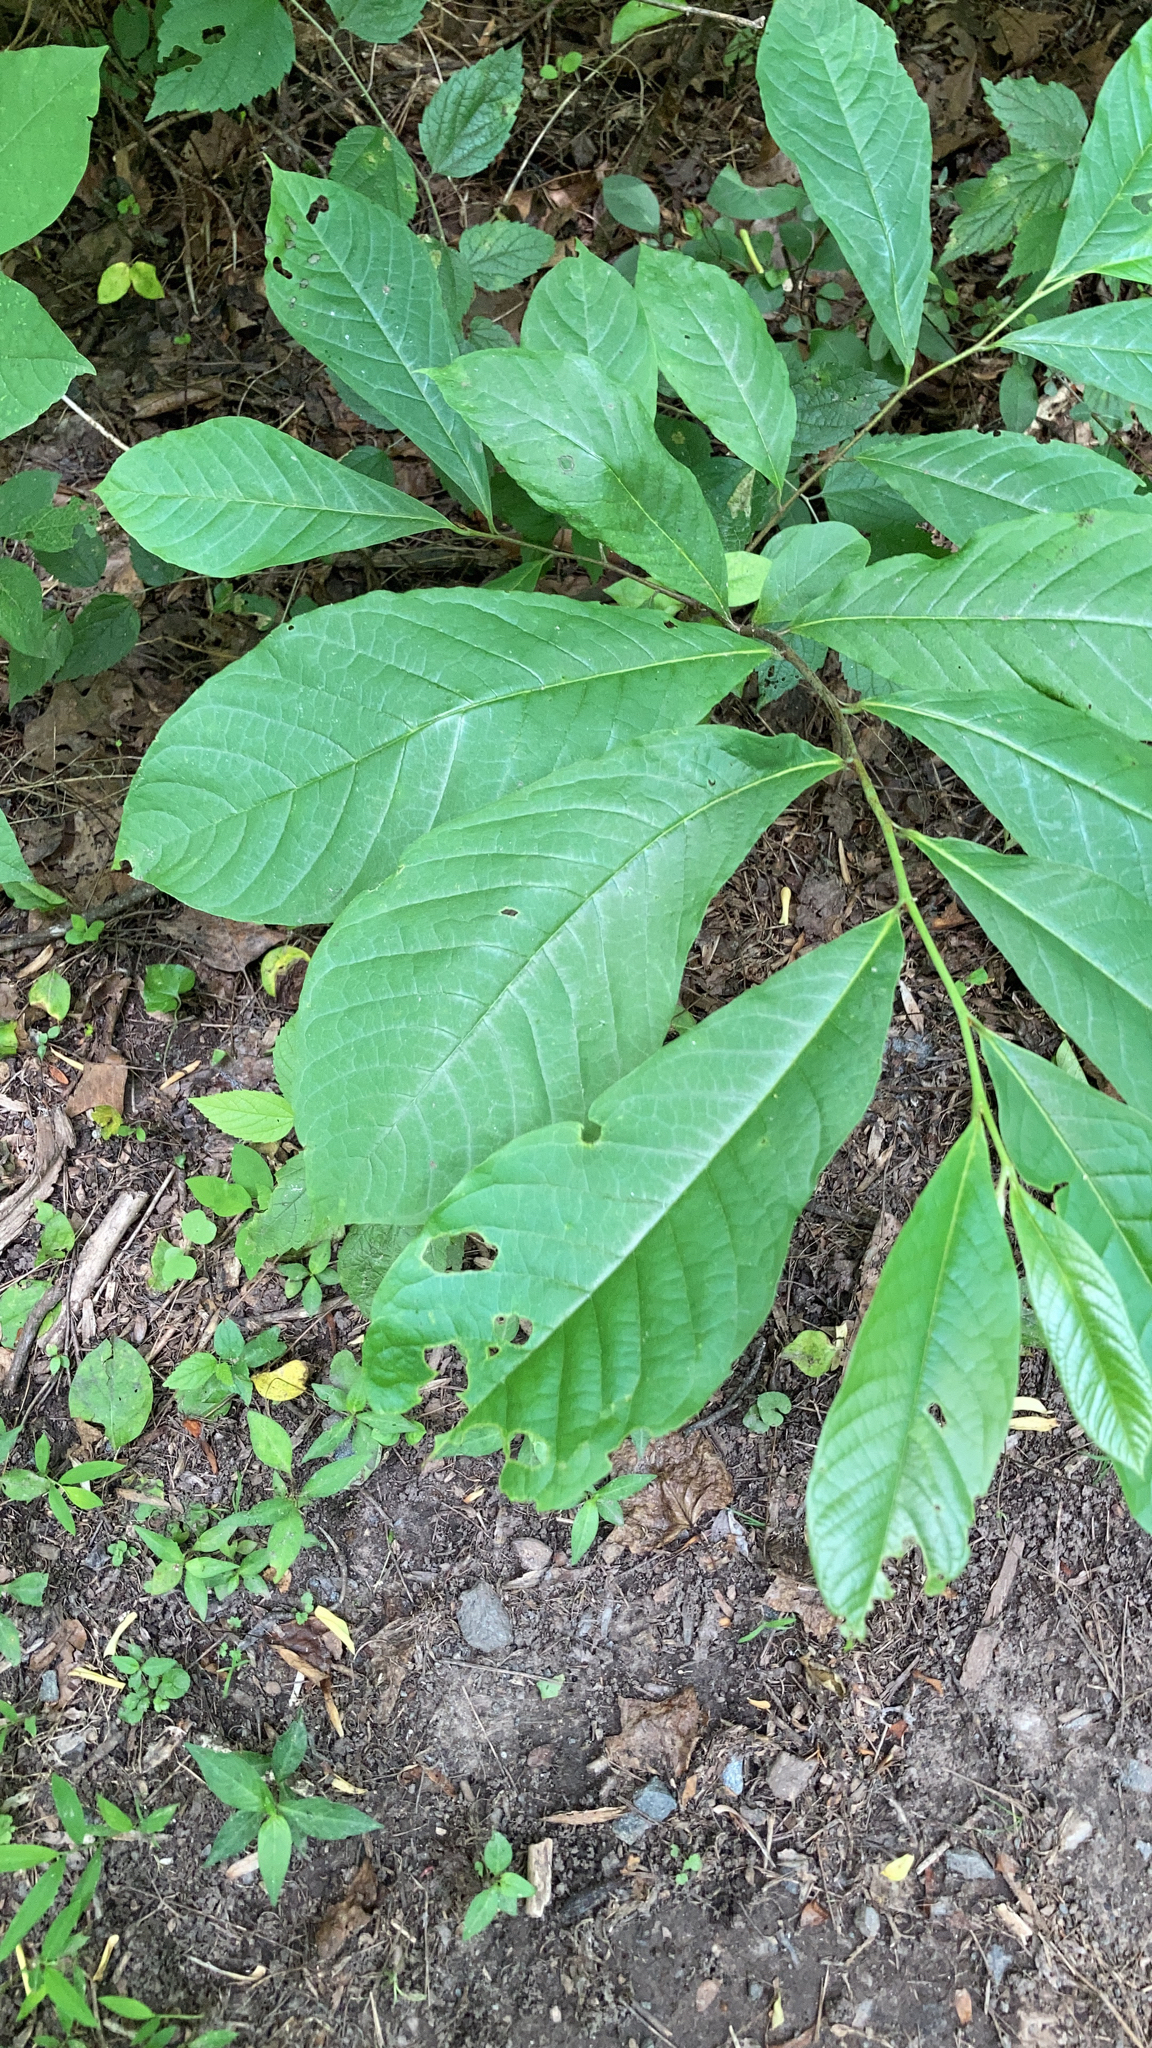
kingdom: Plantae
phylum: Tracheophyta
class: Magnoliopsida
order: Magnoliales
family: Annonaceae
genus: Asimina
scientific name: Asimina triloba
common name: Dog-banana
